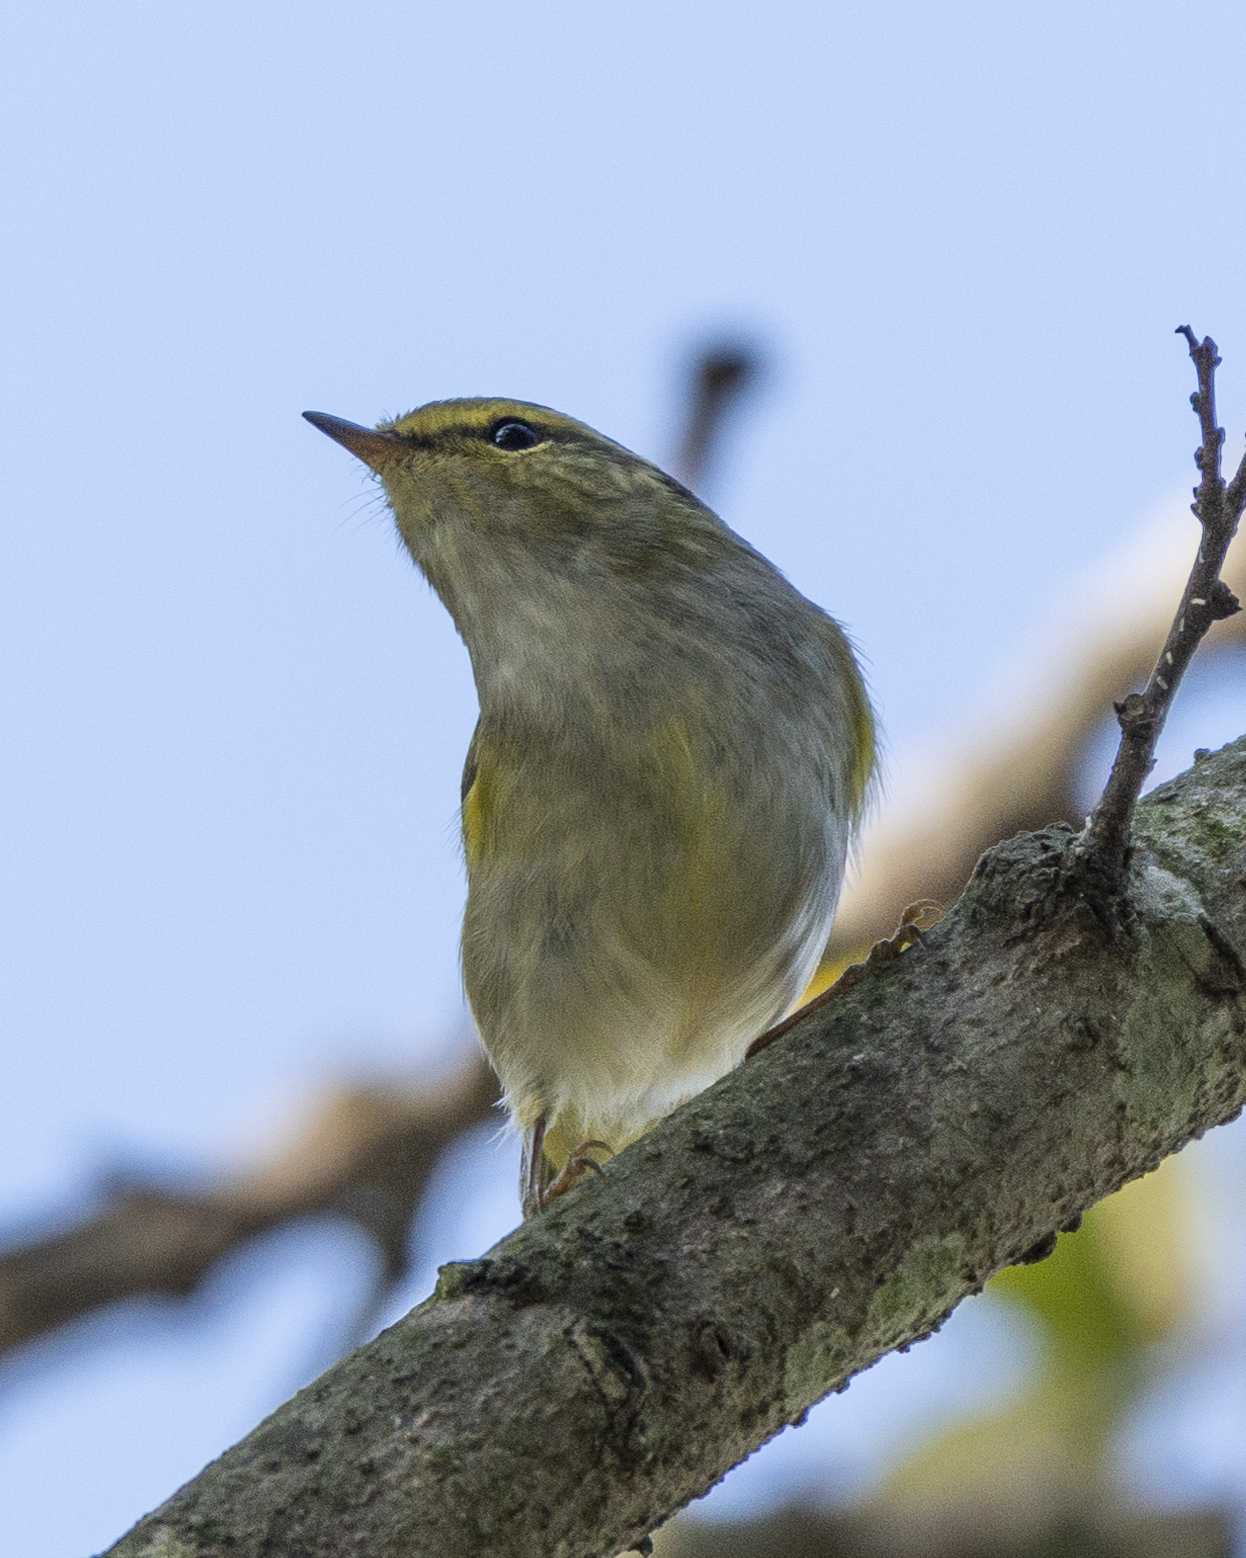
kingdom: Animalia
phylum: Chordata
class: Aves
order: Passeriformes
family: Phylloscopidae
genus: Phylloscopus
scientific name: Phylloscopus proregulus
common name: Pallas's leaf warbler
